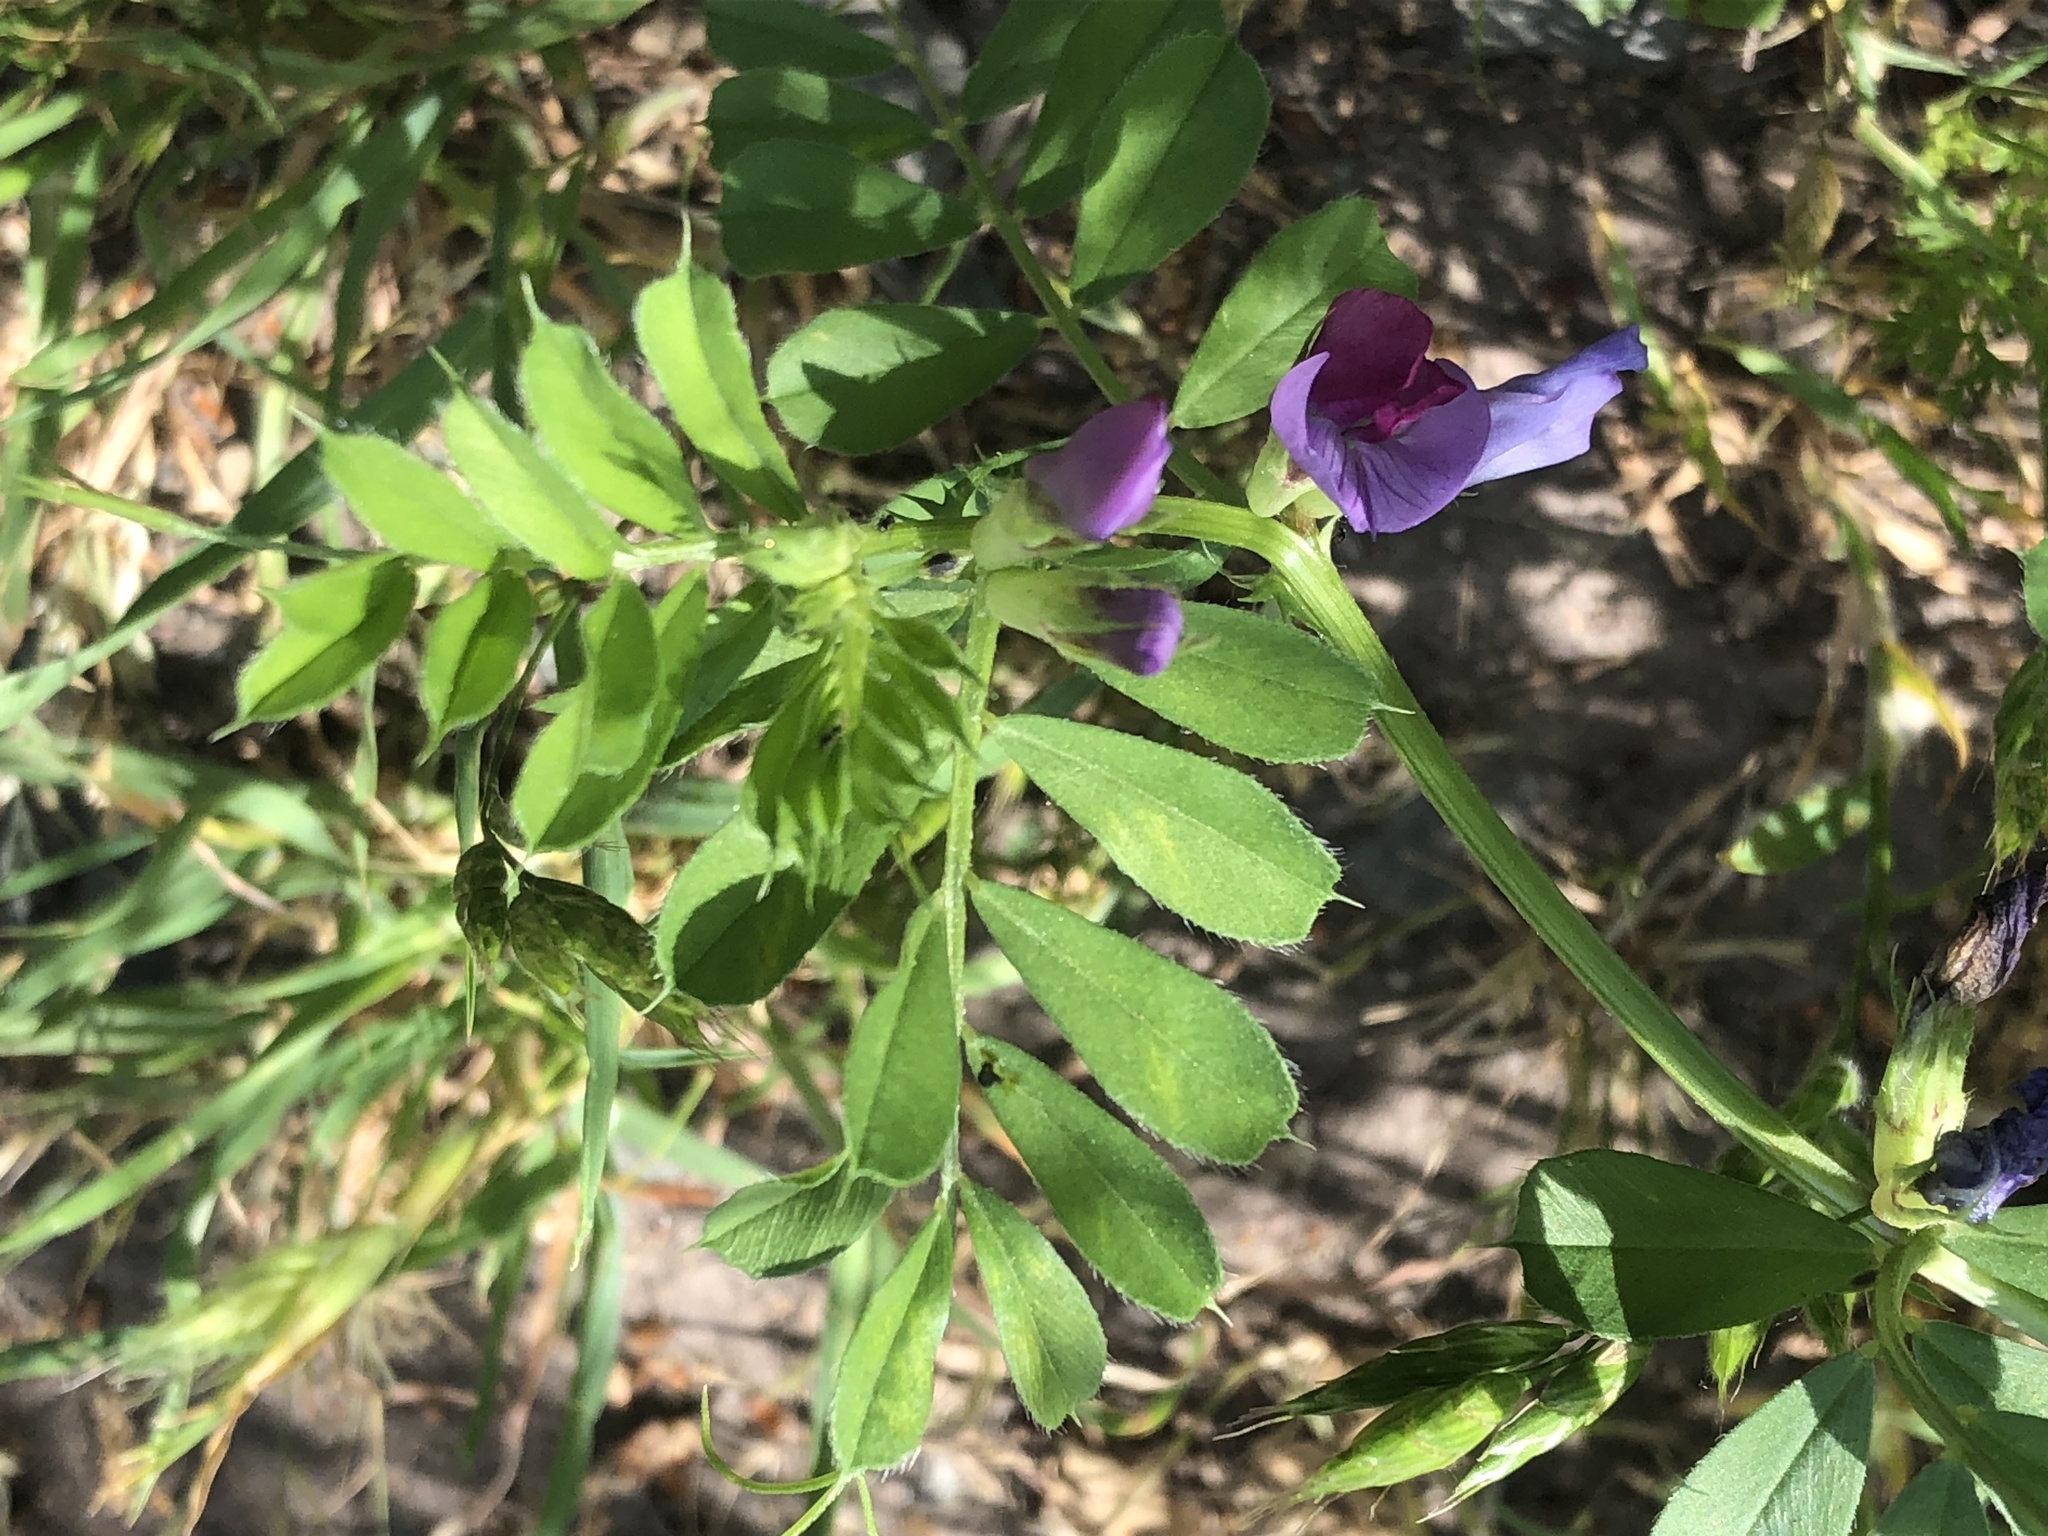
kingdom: Plantae
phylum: Tracheophyta
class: Magnoliopsida
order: Fabales
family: Fabaceae
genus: Vicia
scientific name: Vicia sativa
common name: Garden vetch
